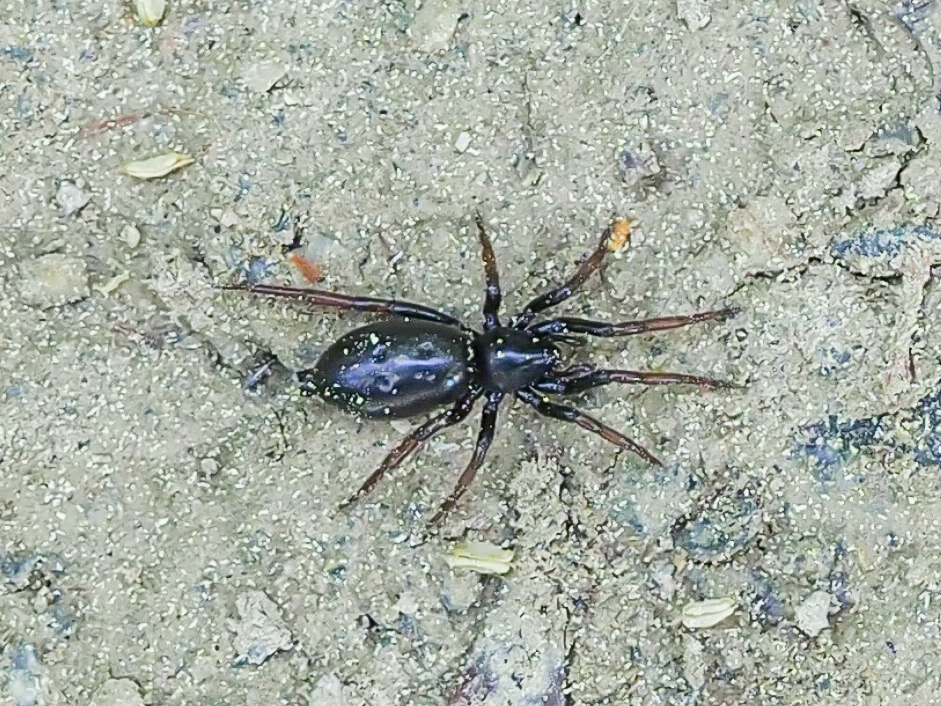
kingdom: Animalia
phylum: Arthropoda
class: Arachnida
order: Araneae
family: Gnaphosidae
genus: Trachyzelotes
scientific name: Trachyzelotes pedestris
